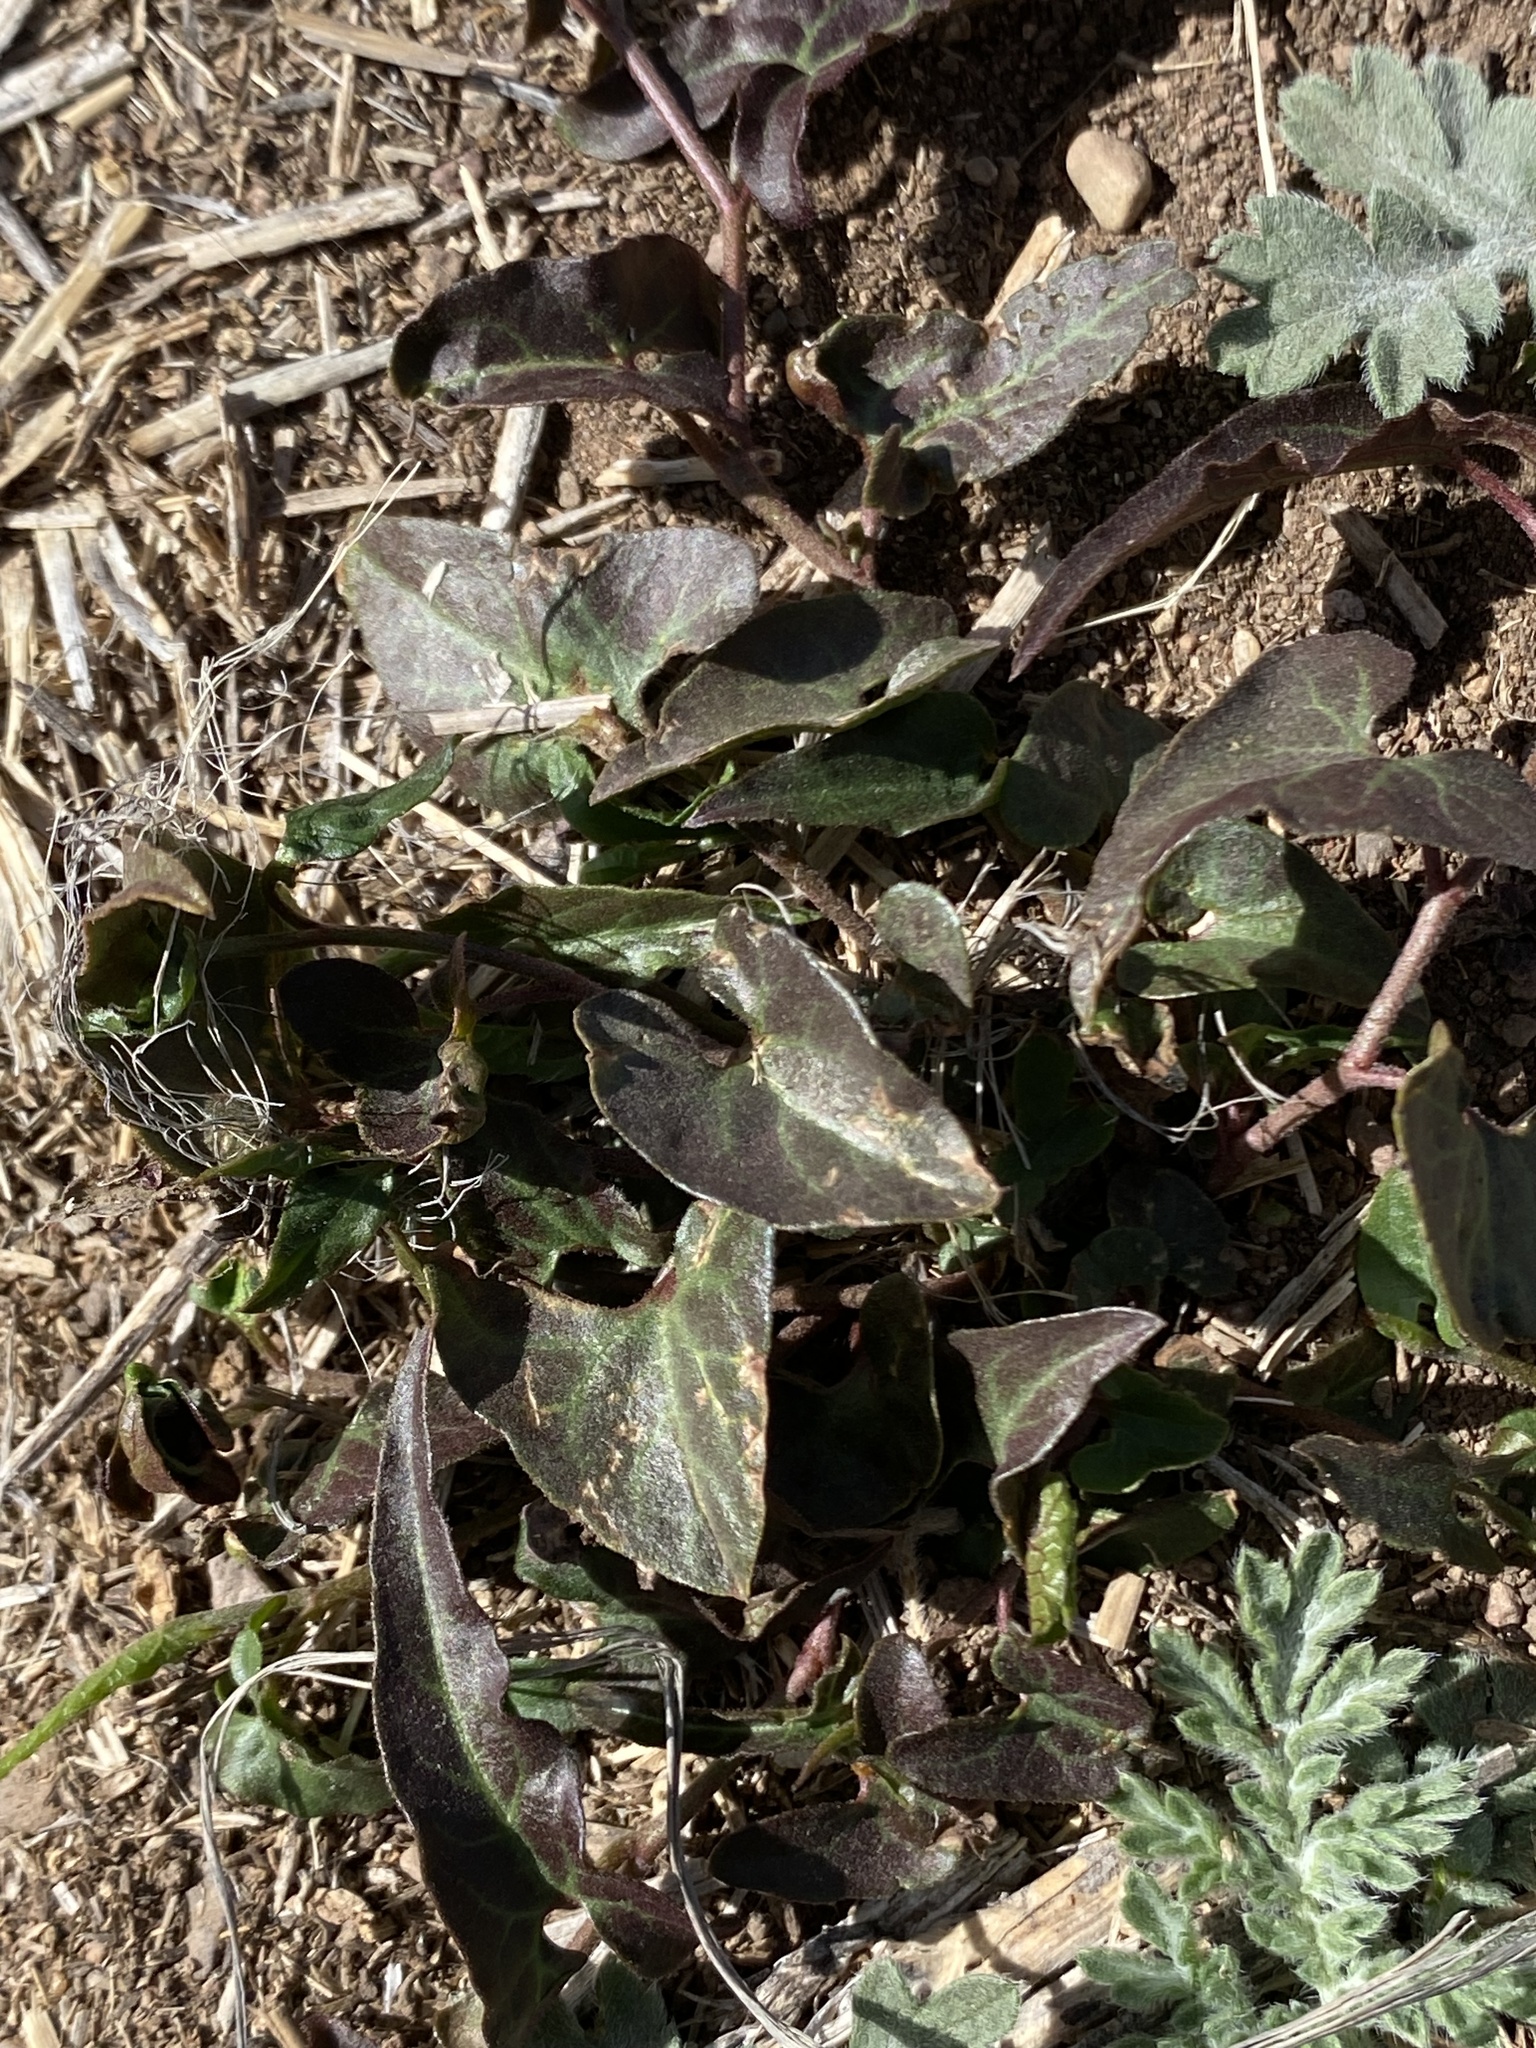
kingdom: Plantae
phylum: Tracheophyta
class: Magnoliopsida
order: Piperales
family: Aristolochiaceae
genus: Aristolochia
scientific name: Aristolochia watsonii
